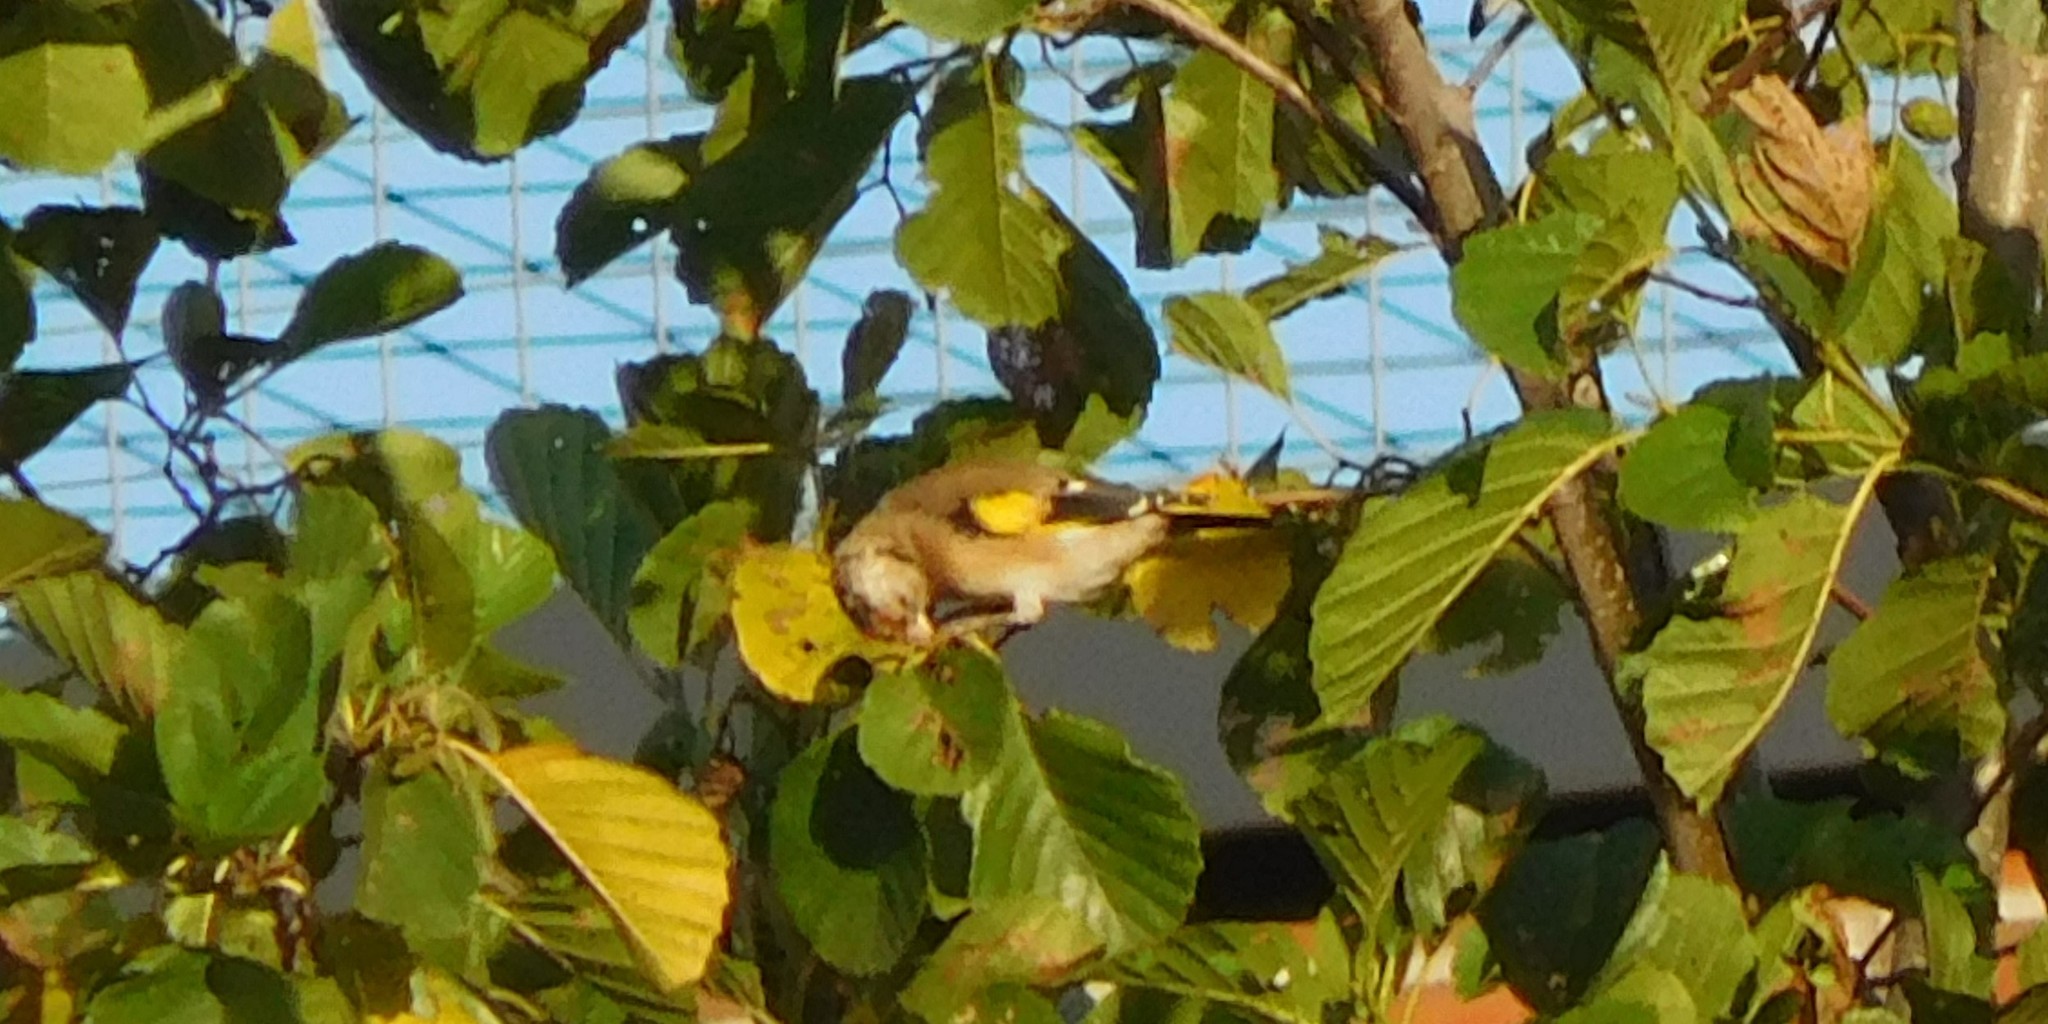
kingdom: Animalia
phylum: Chordata
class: Aves
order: Passeriformes
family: Fringillidae
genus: Carduelis
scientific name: Carduelis carduelis
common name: European goldfinch
